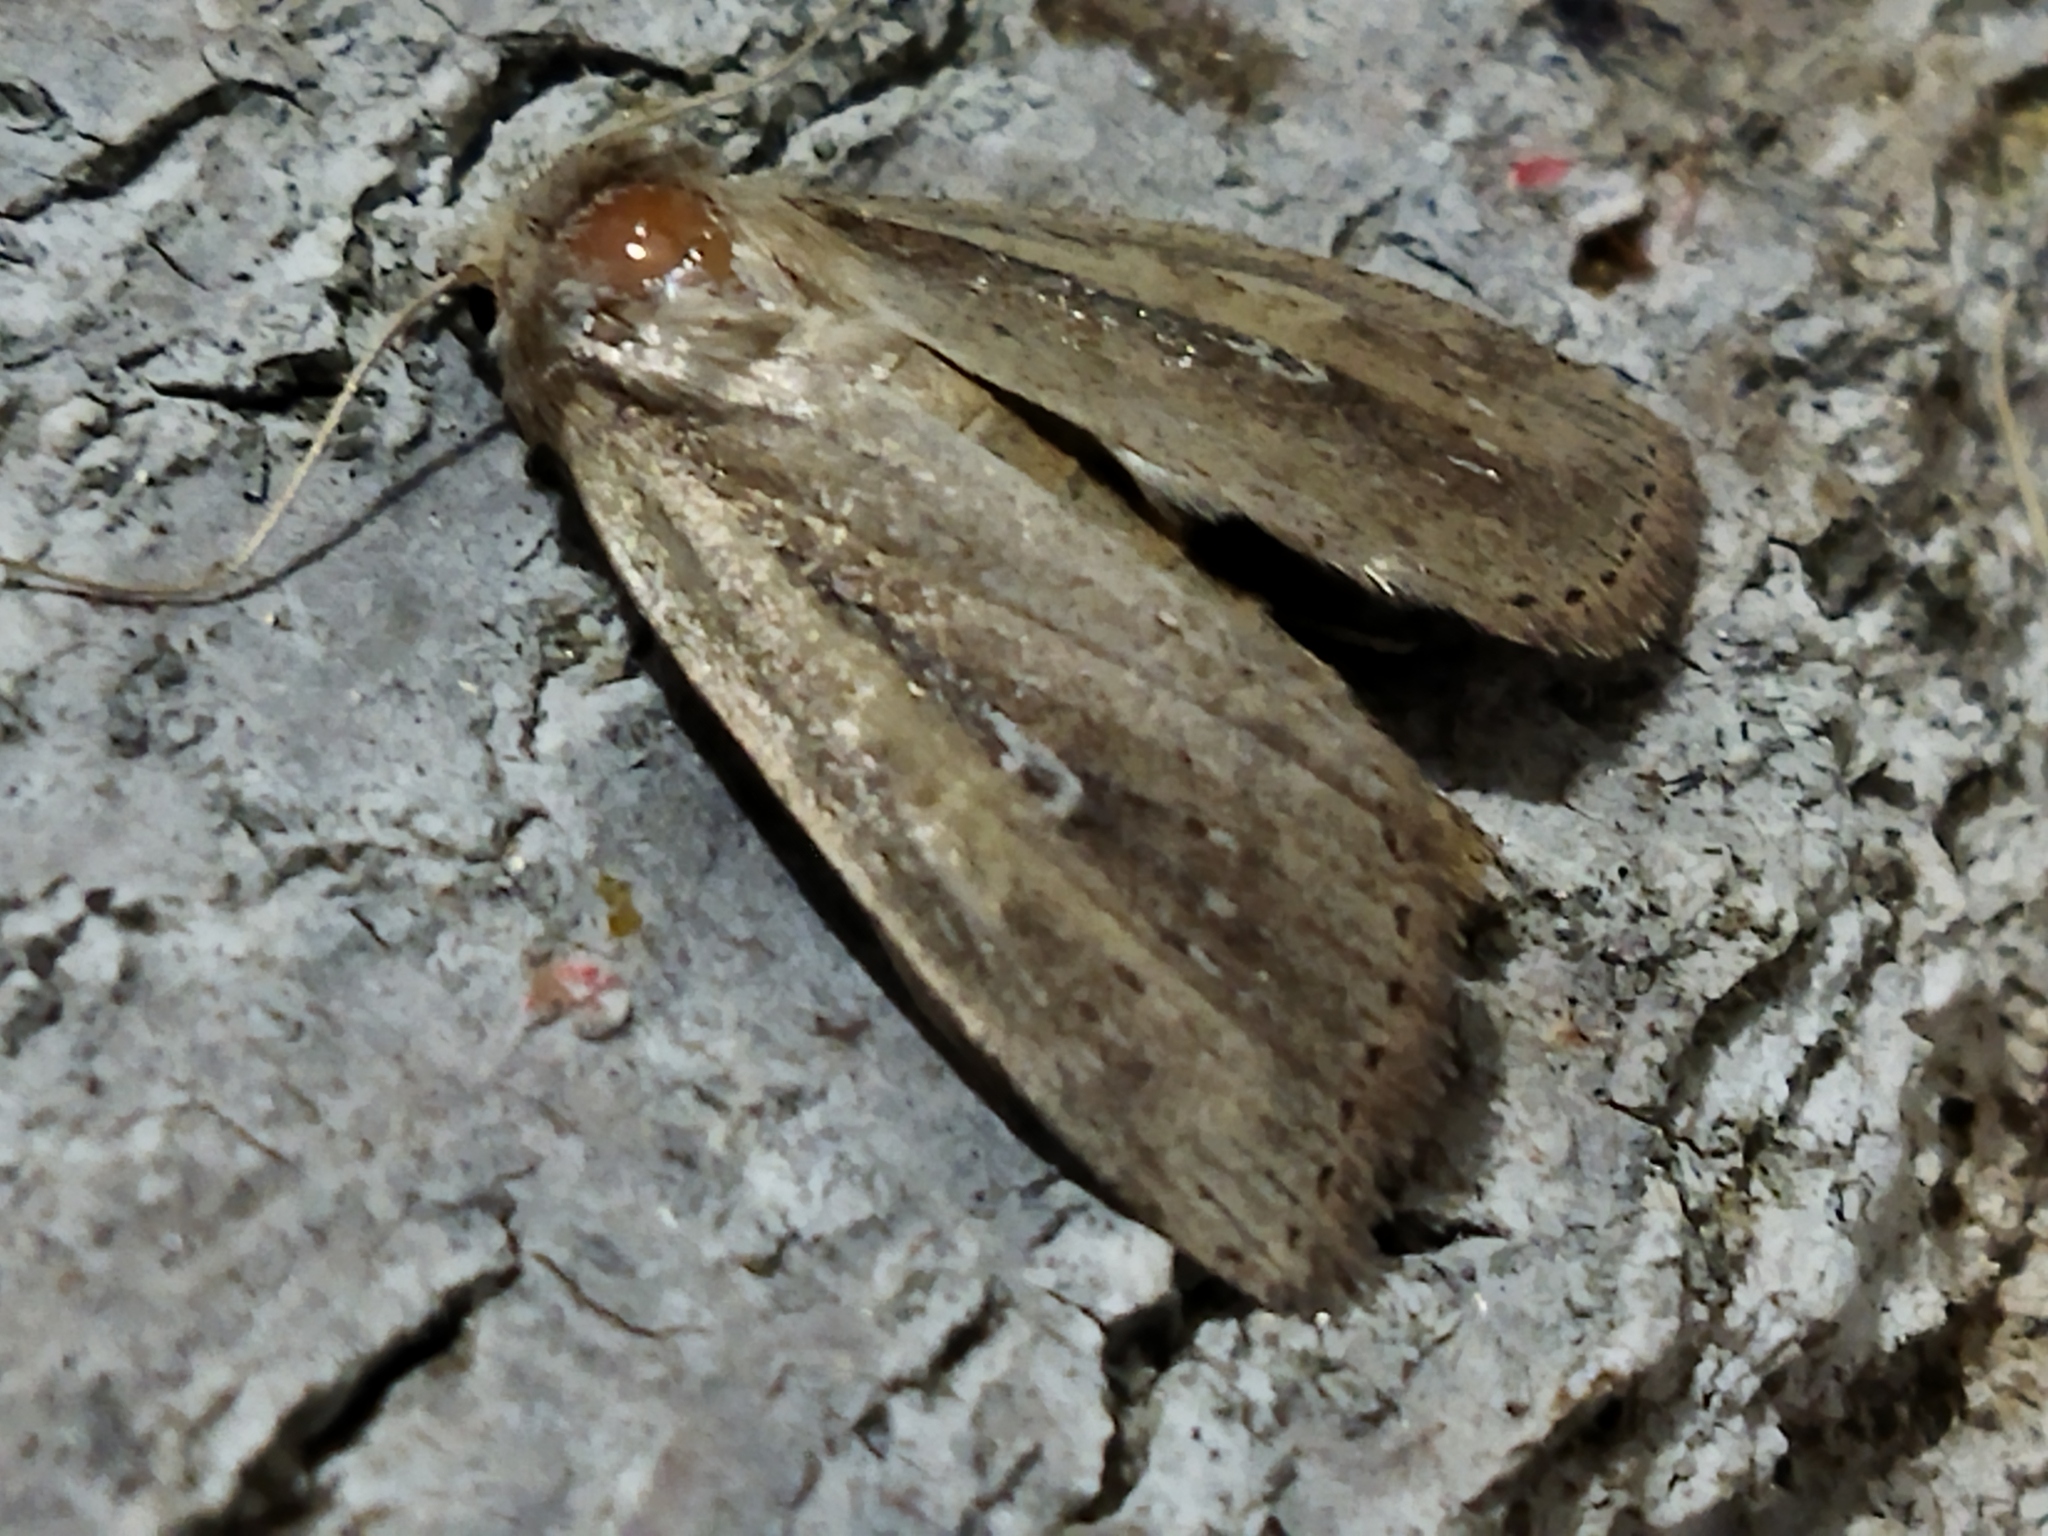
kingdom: Animalia
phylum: Arthropoda
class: Insecta
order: Lepidoptera
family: Noctuidae
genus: Archanara
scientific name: Archanara dissoluta
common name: Brown-veined wainscot
